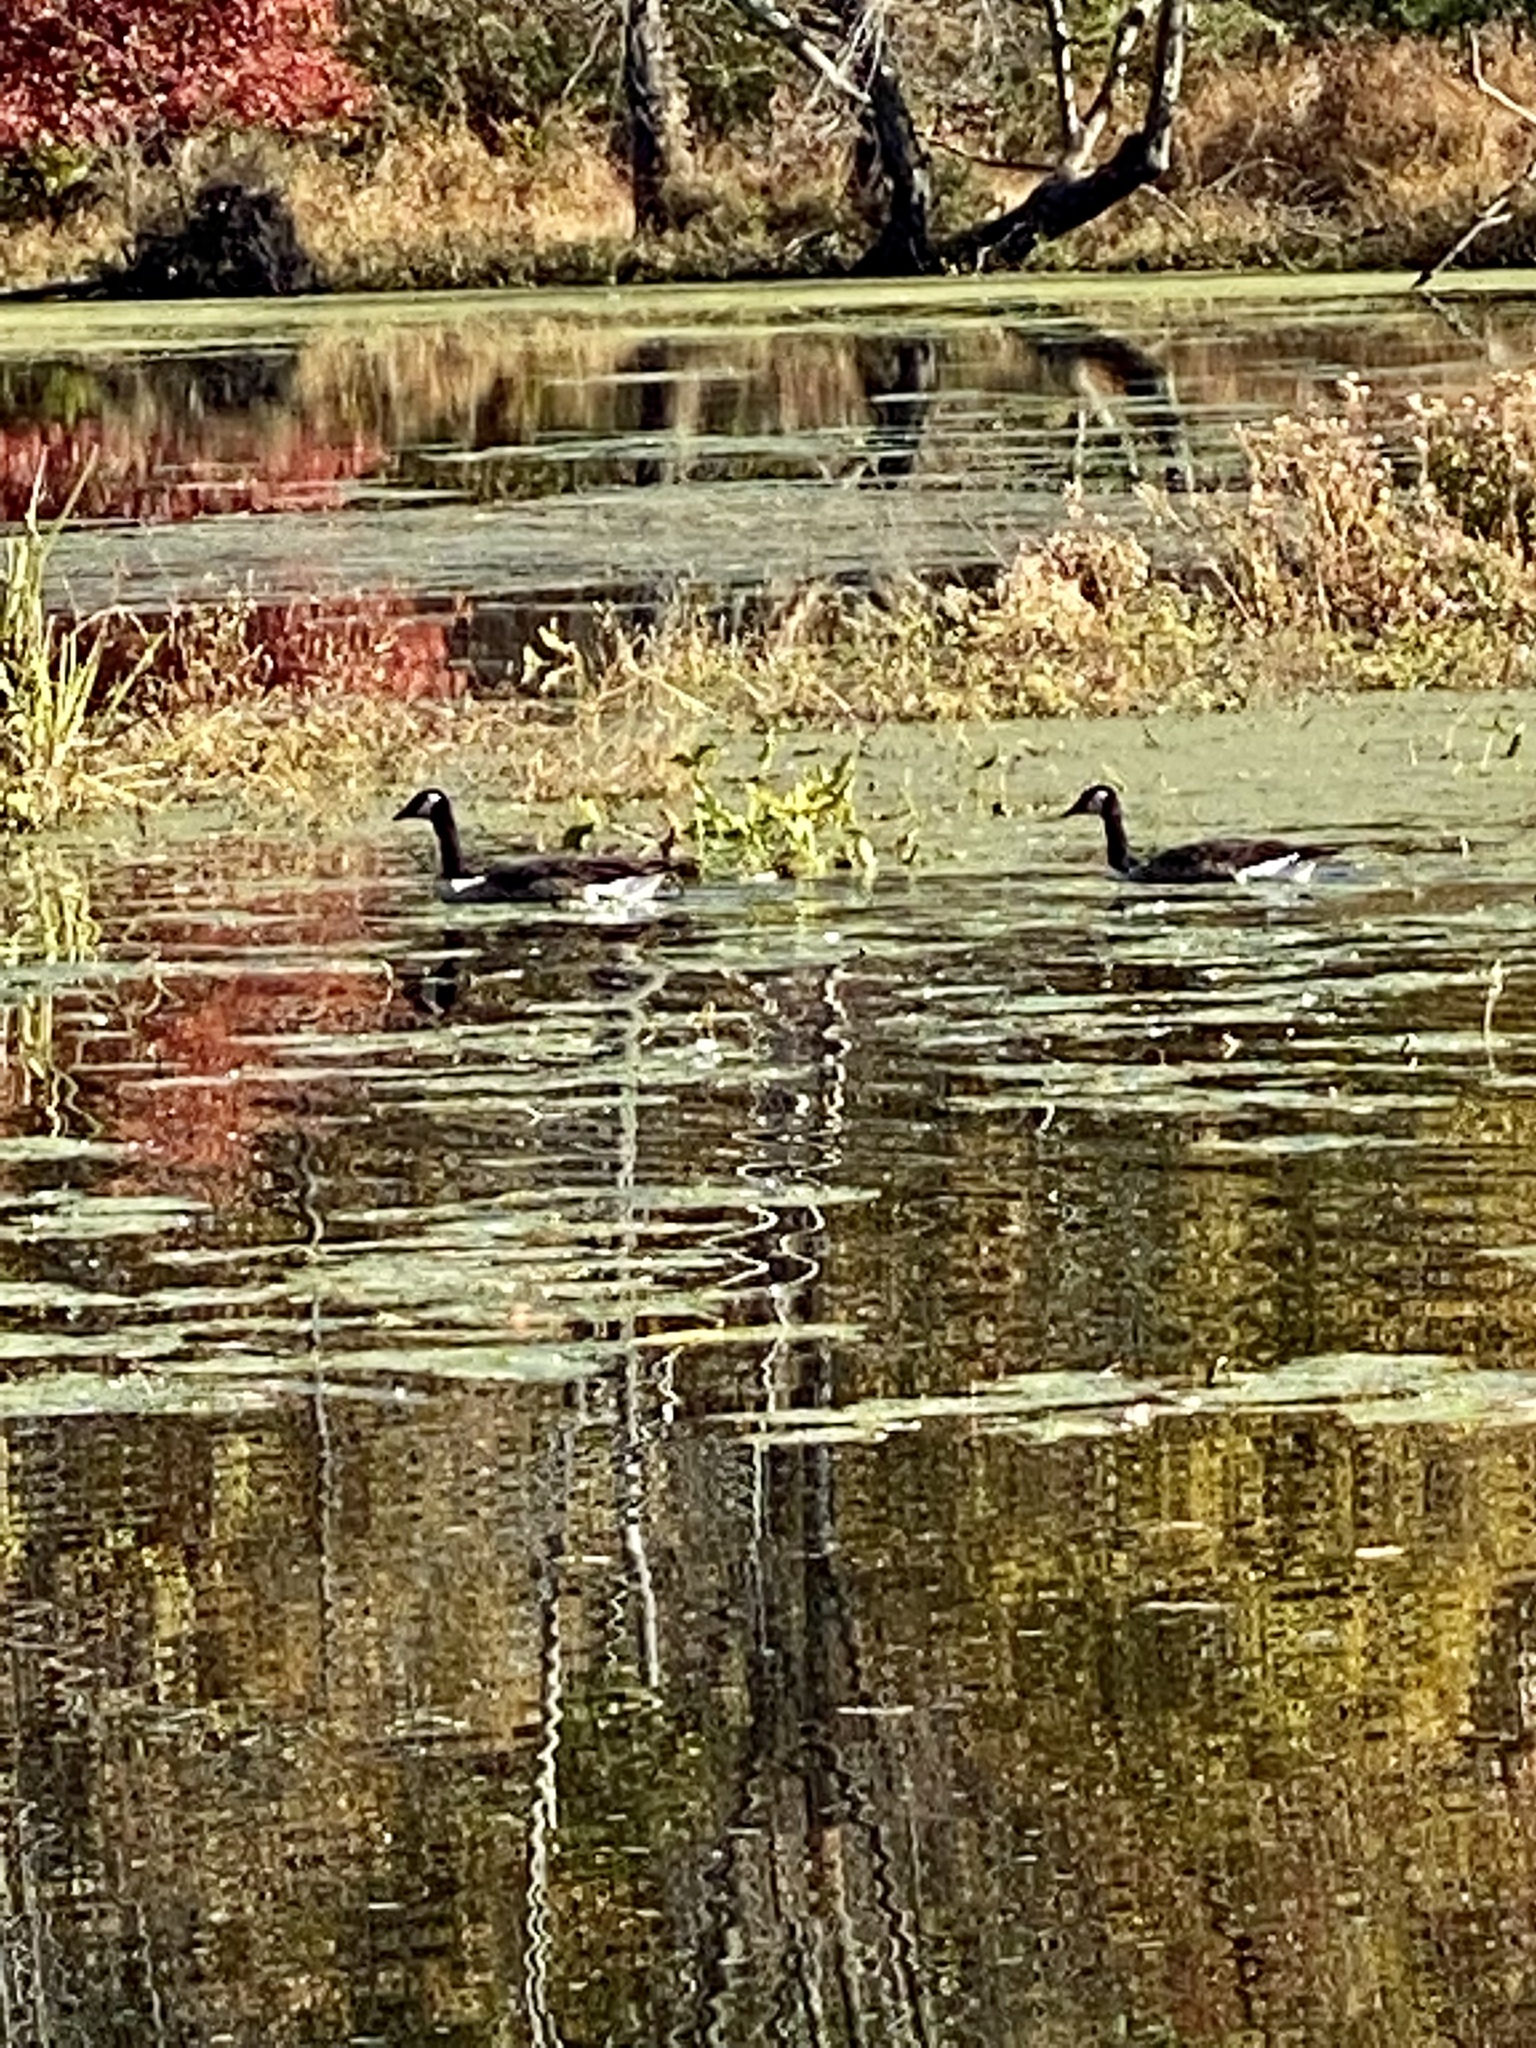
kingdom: Animalia
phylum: Chordata
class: Aves
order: Anseriformes
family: Anatidae
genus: Branta
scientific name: Branta canadensis
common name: Canada goose
